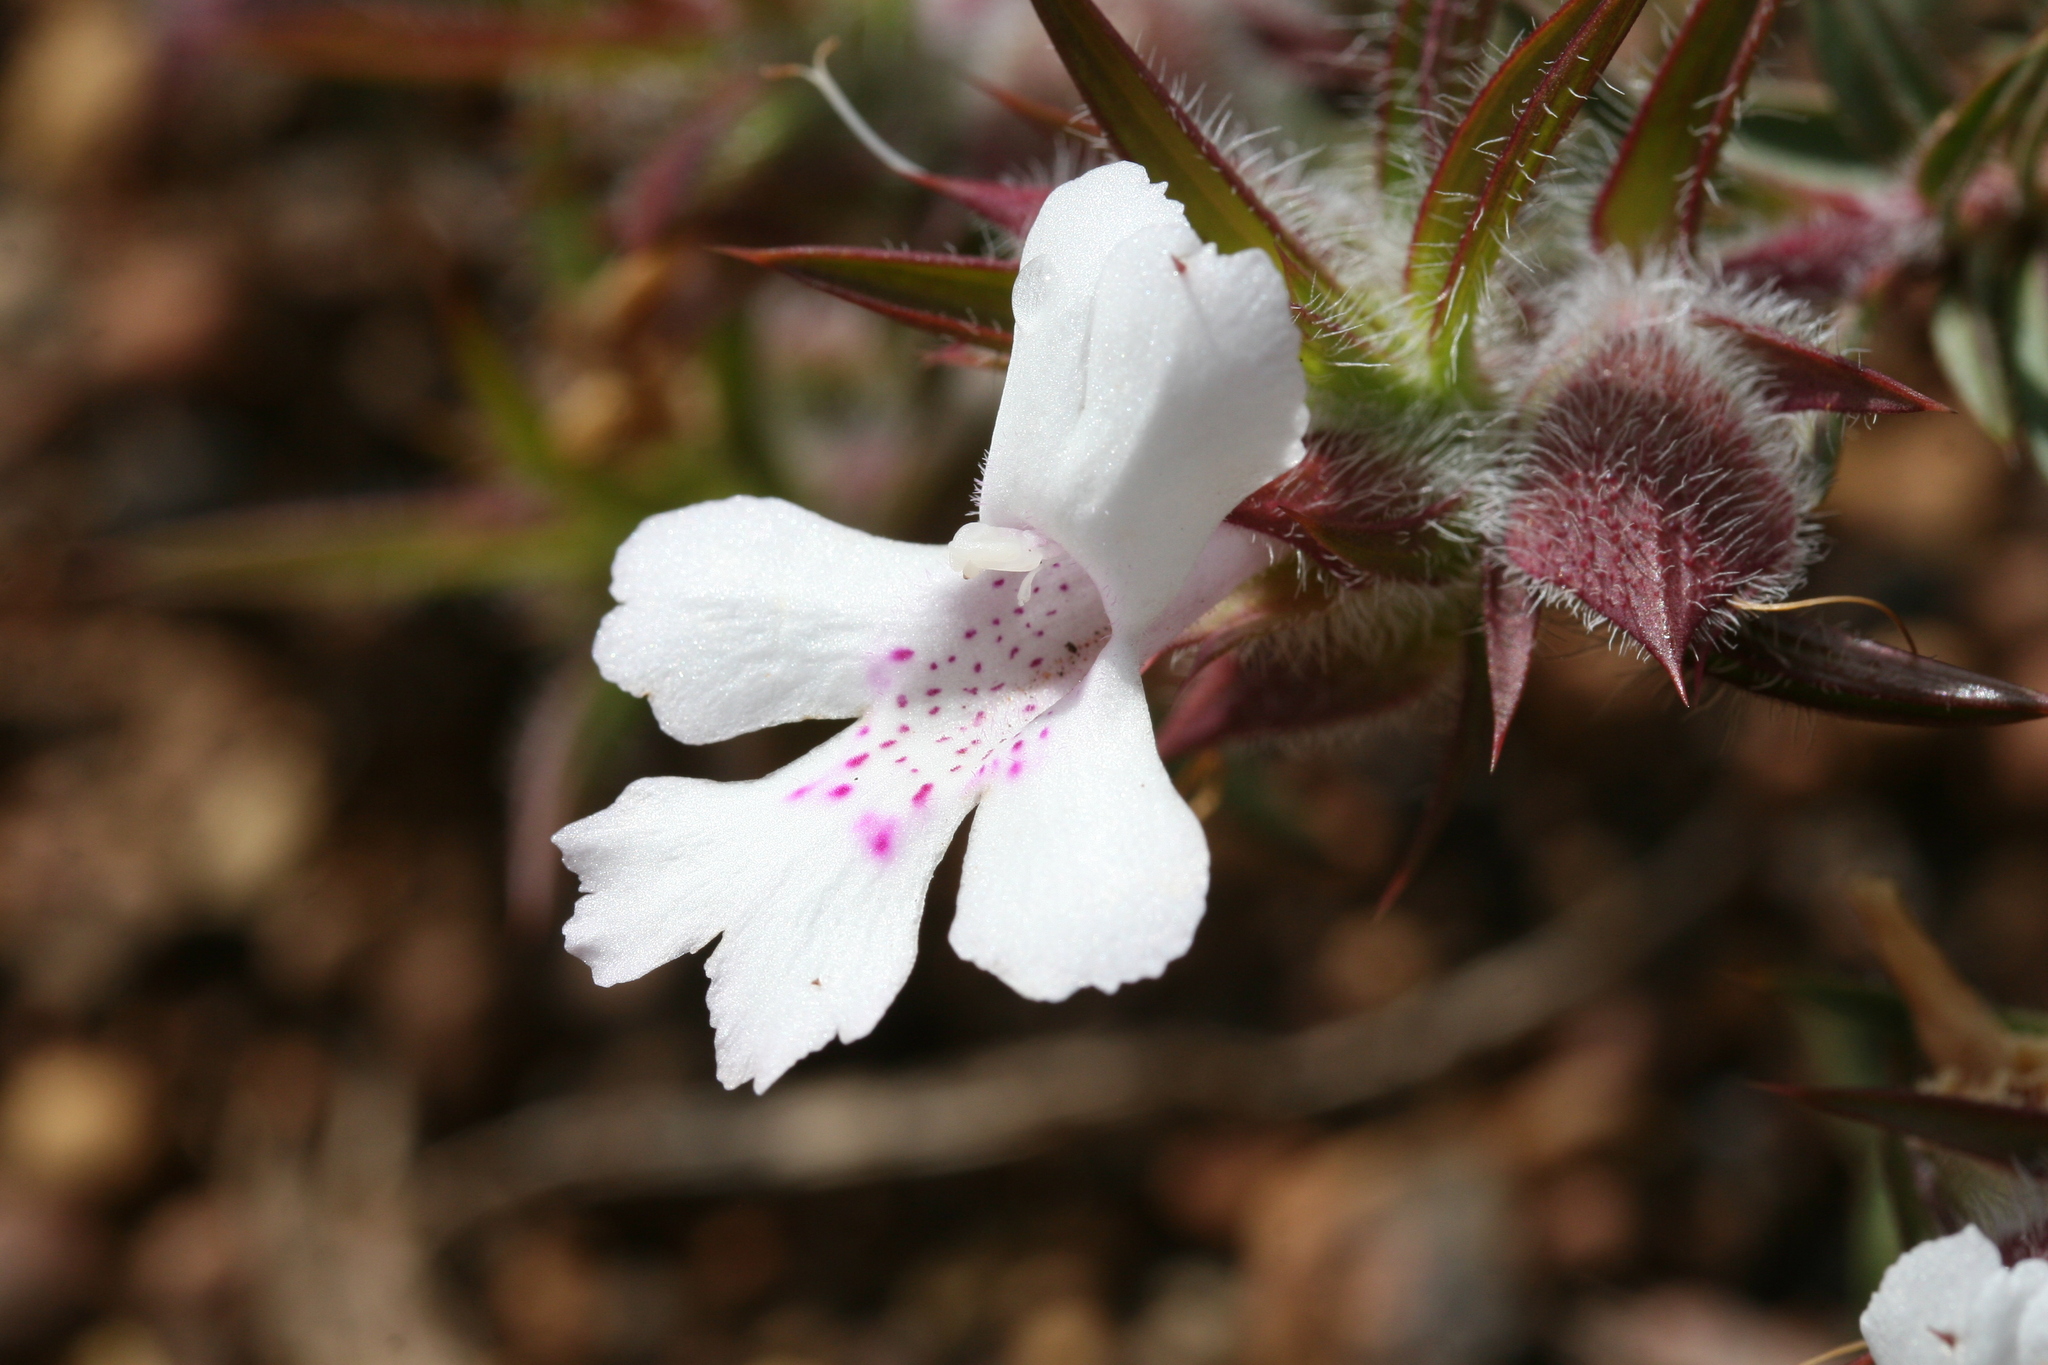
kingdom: Plantae
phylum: Tracheophyta
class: Magnoliopsida
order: Lamiales
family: Lamiaceae
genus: Hemiandra
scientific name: Hemiandra pungens
